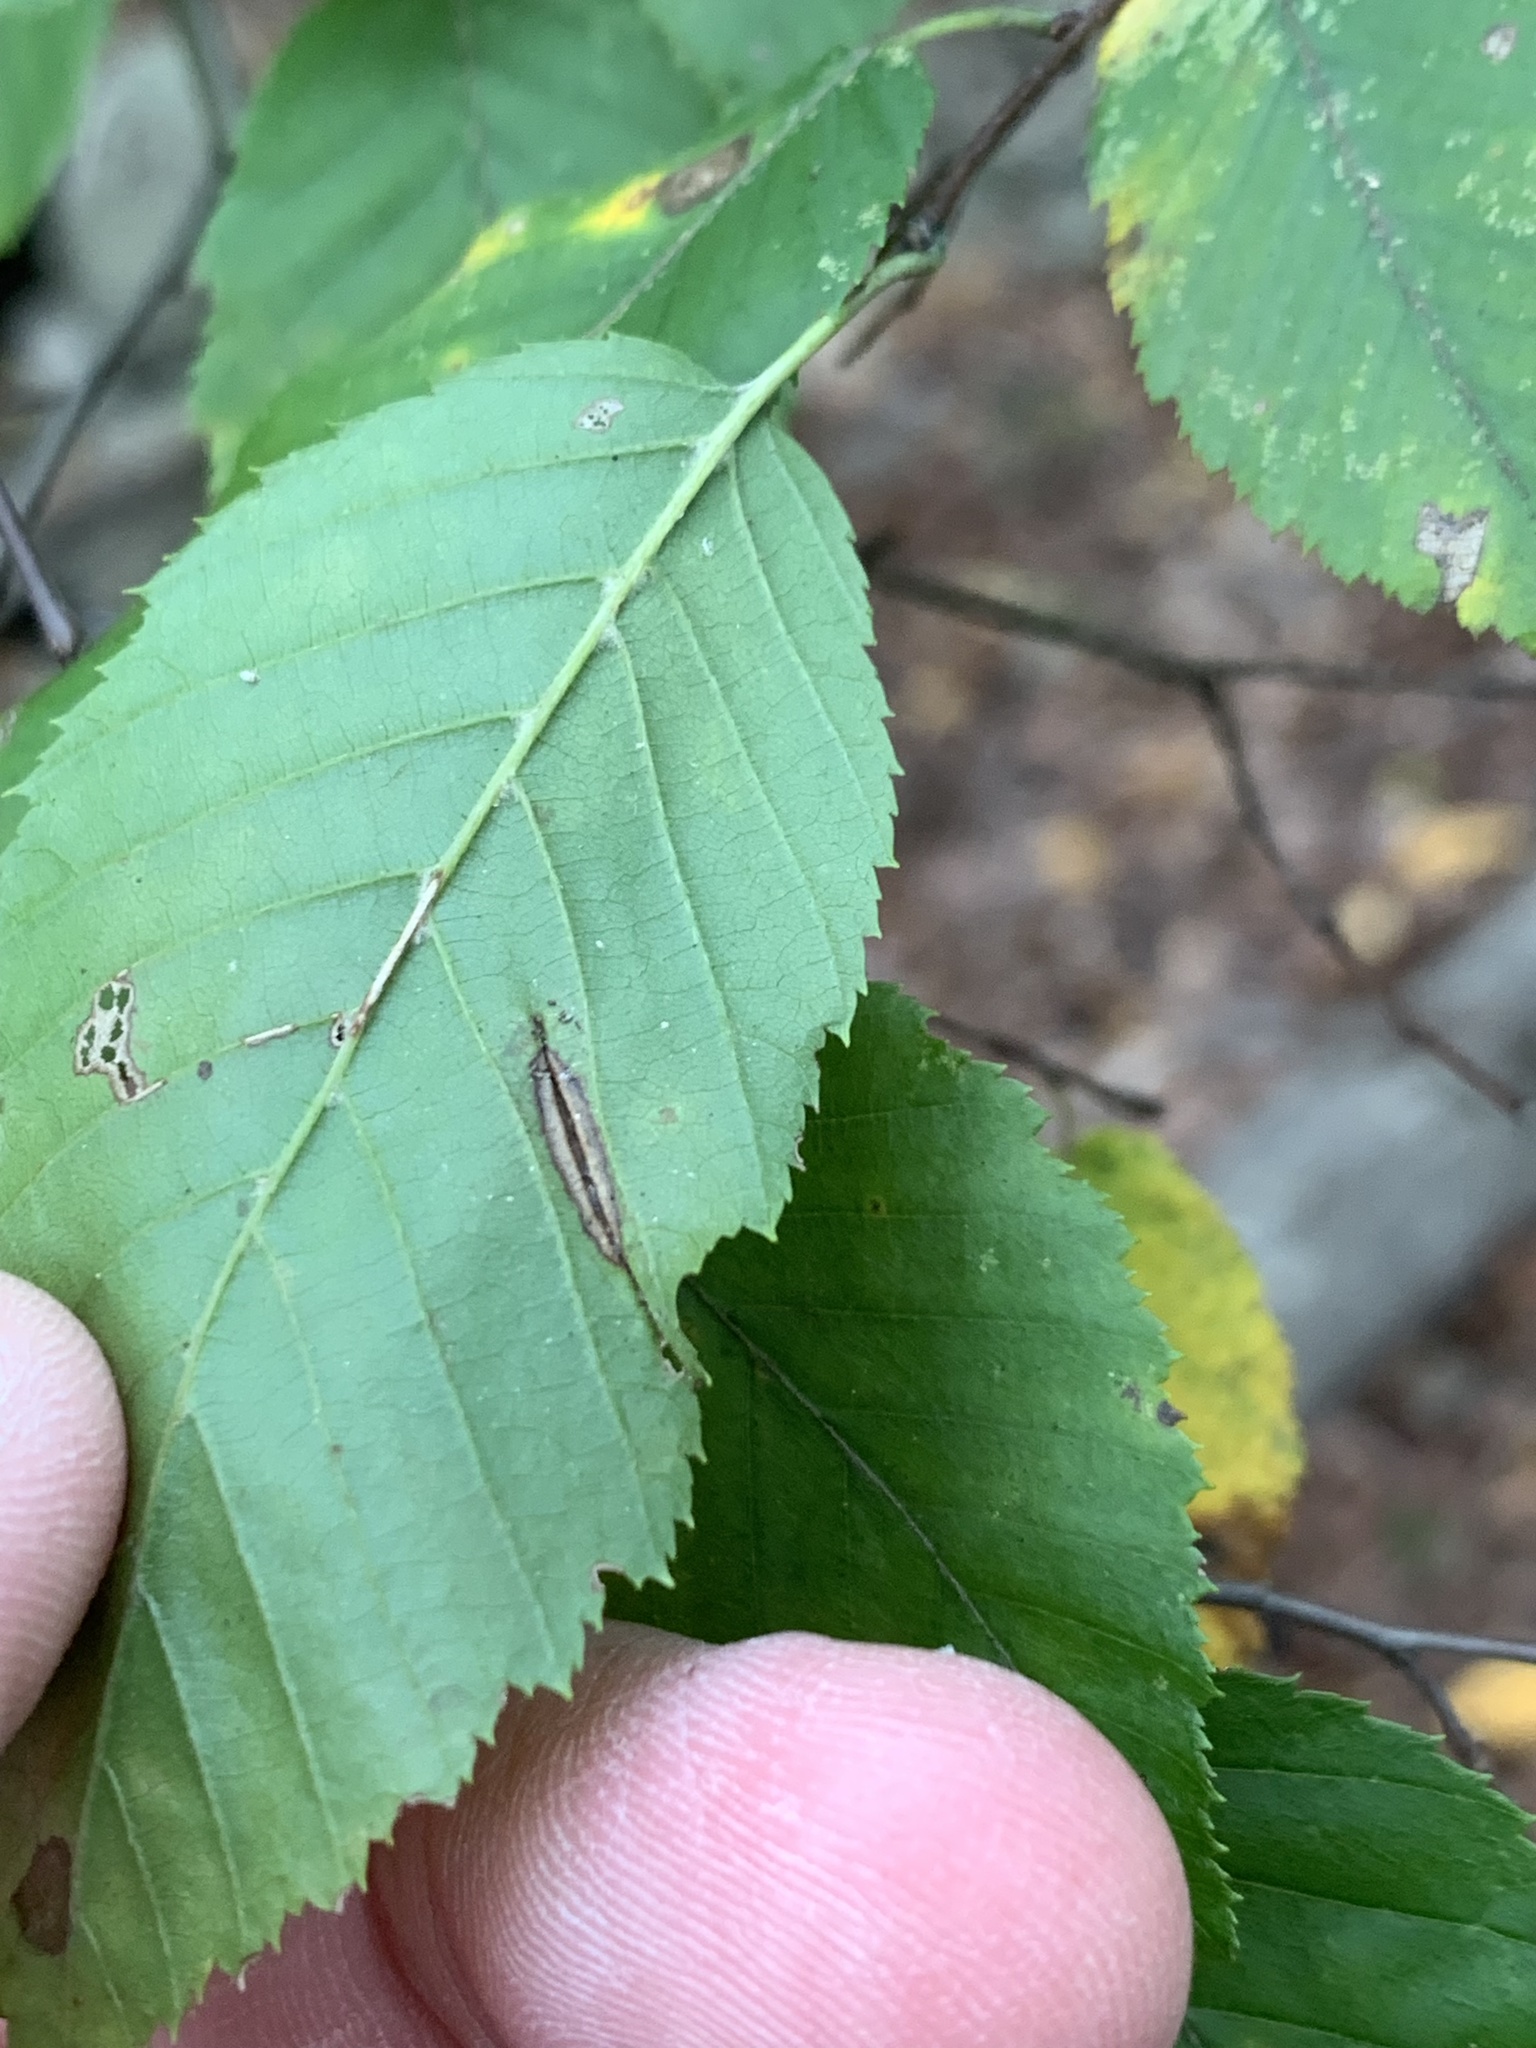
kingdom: Animalia
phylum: Arthropoda
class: Insecta
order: Diptera
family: Cecidomyiidae
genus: Dasineura
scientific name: Dasineura pudibunda
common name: Hornbeam leaf gall midge
